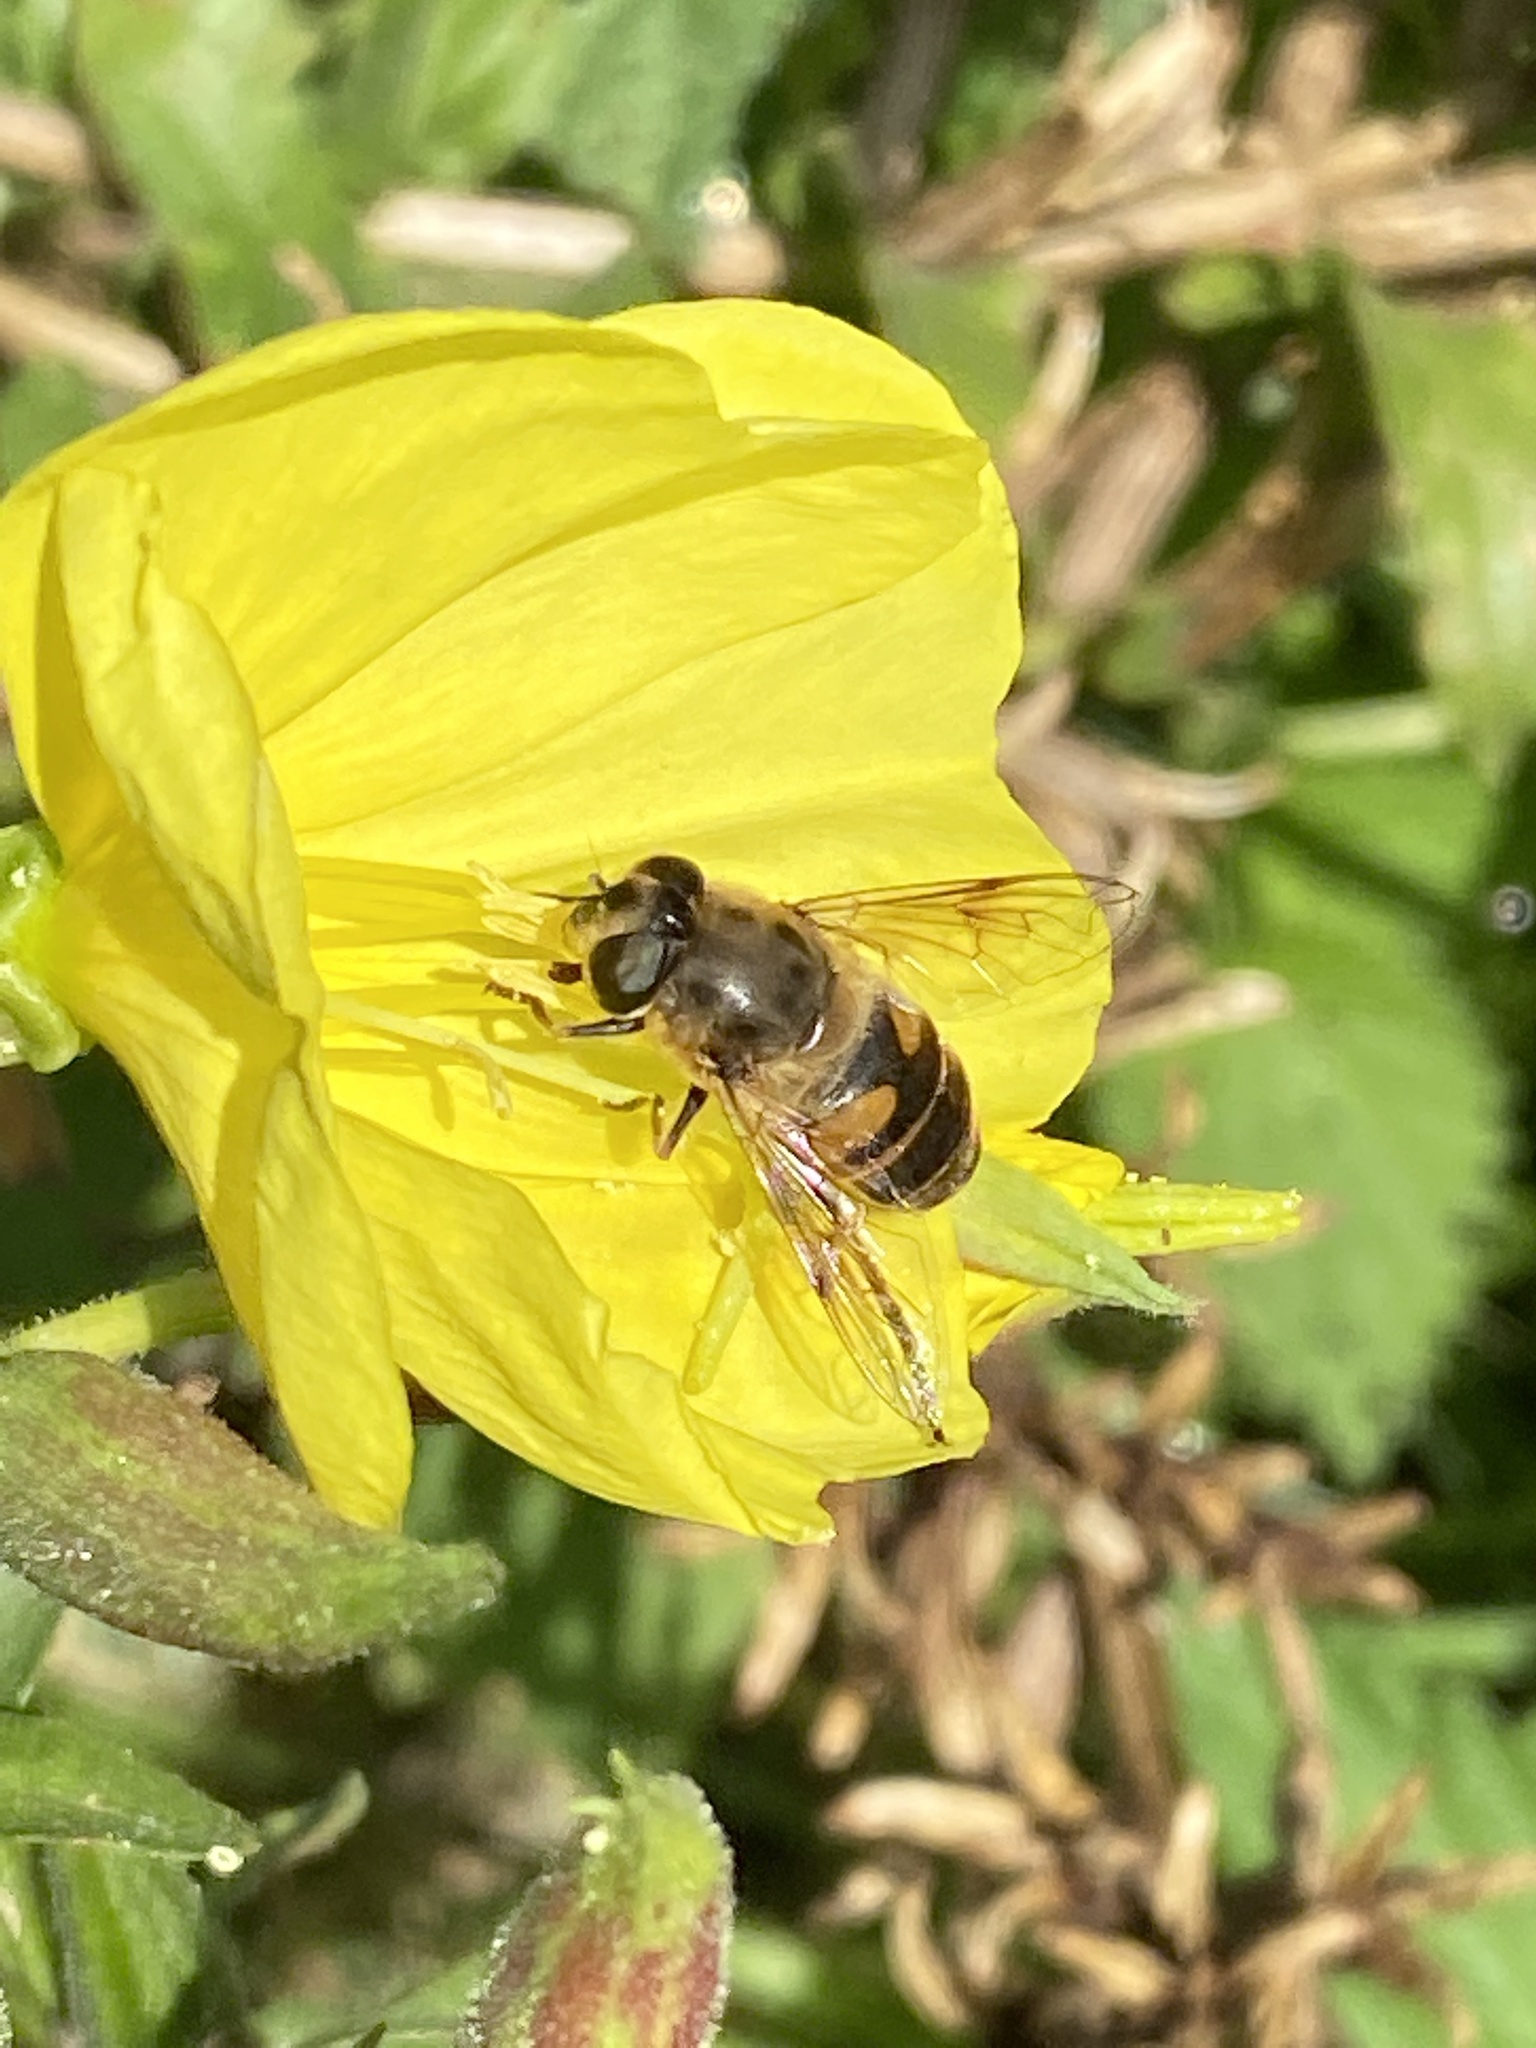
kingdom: Animalia
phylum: Arthropoda
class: Insecta
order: Diptera
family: Syrphidae
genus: Eristalis
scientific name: Eristalis tenax
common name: Drone fly
